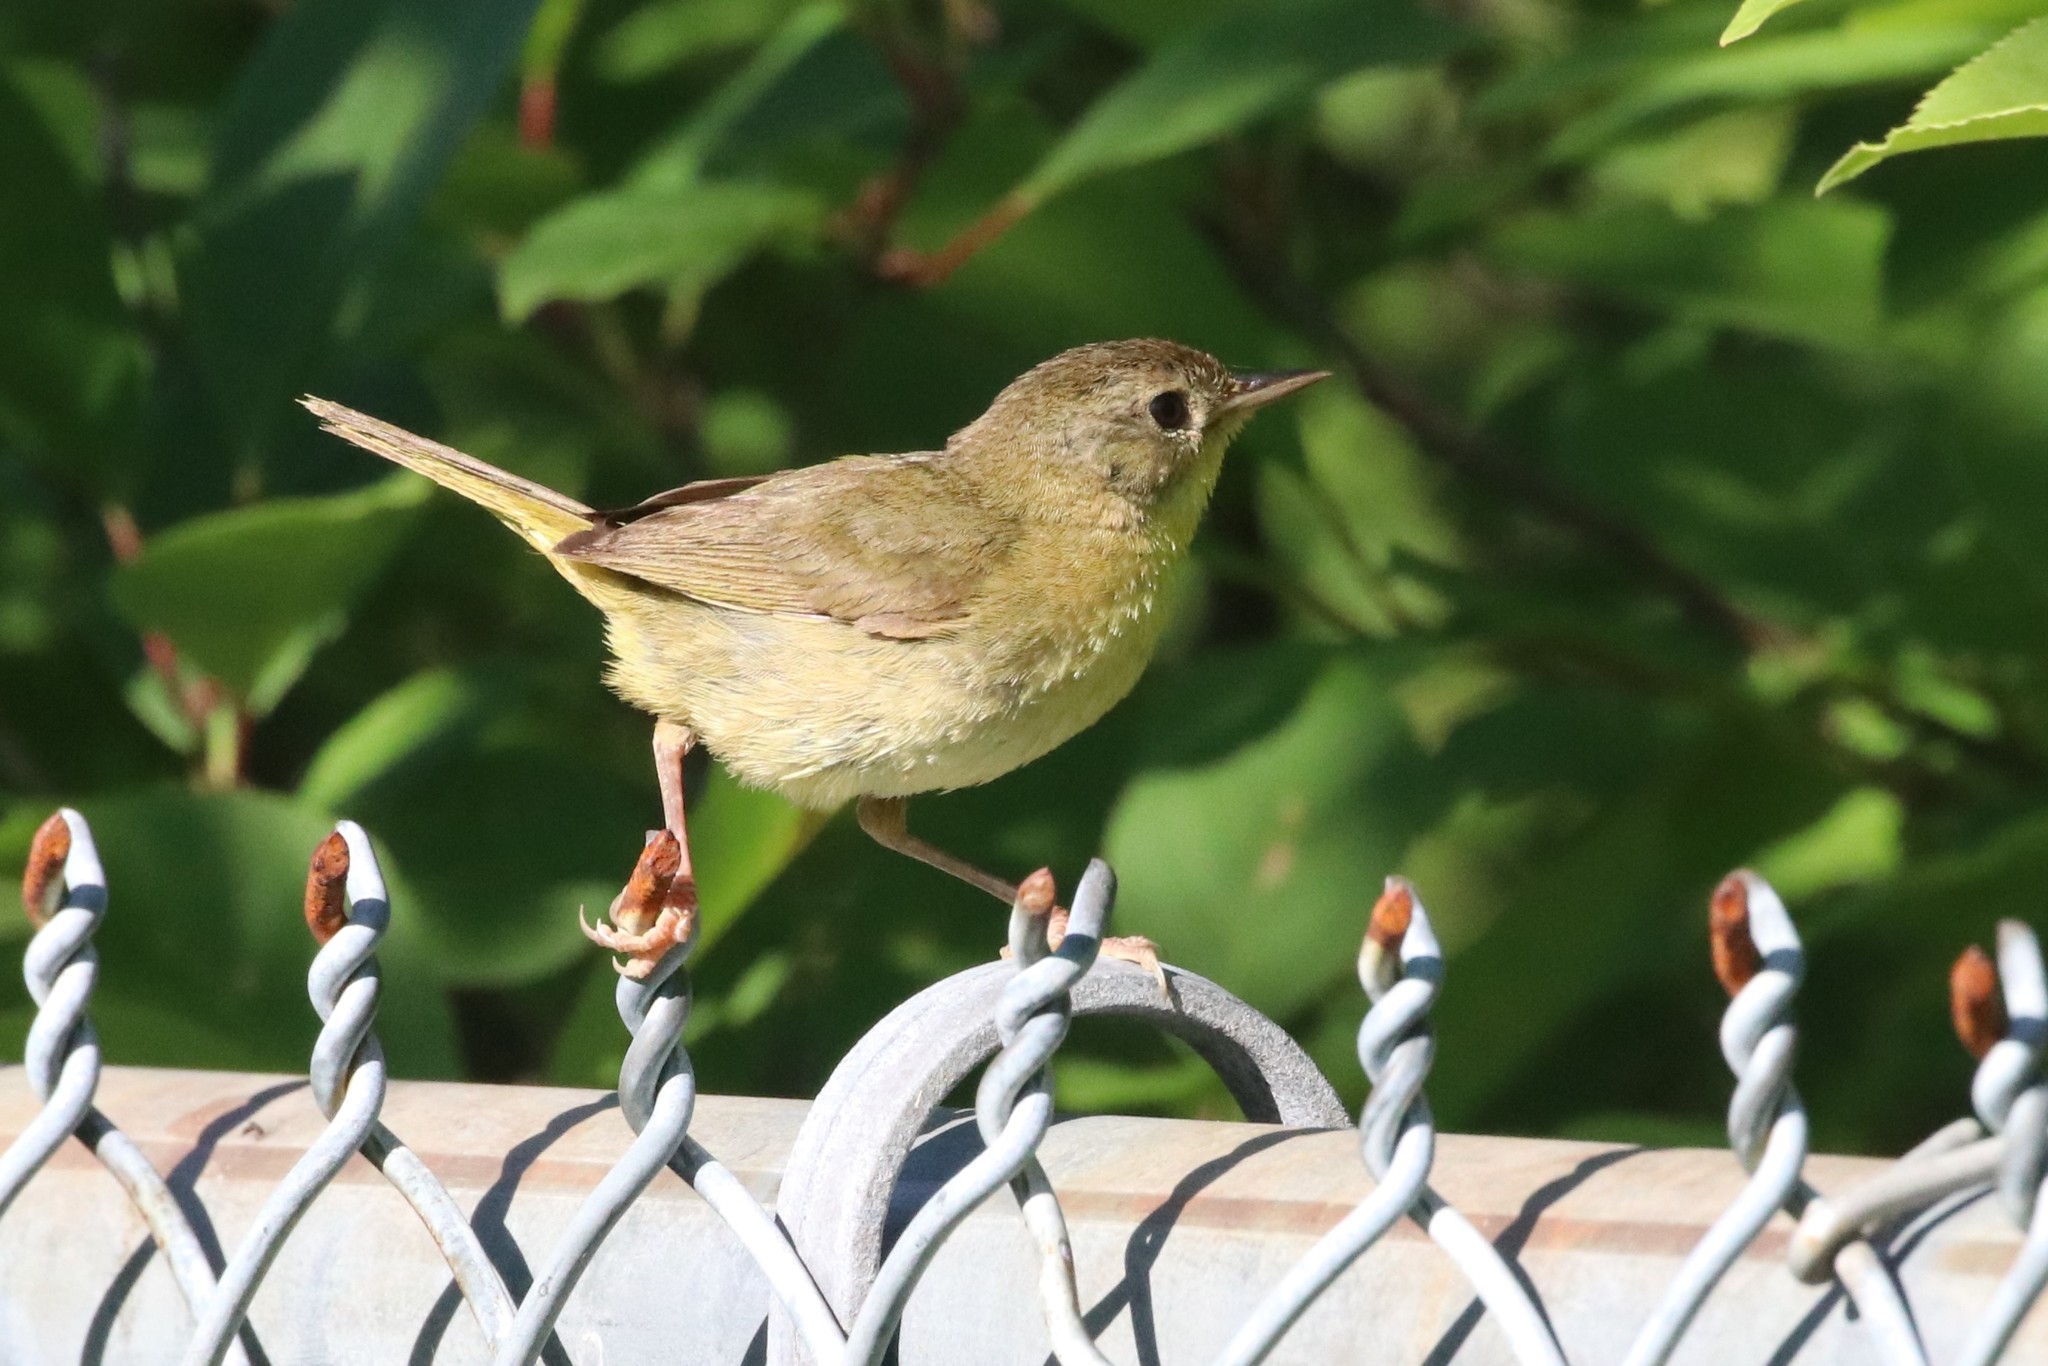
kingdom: Animalia
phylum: Chordata
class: Aves
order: Passeriformes
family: Parulidae
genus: Geothlypis
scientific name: Geothlypis trichas
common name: Common yellowthroat
